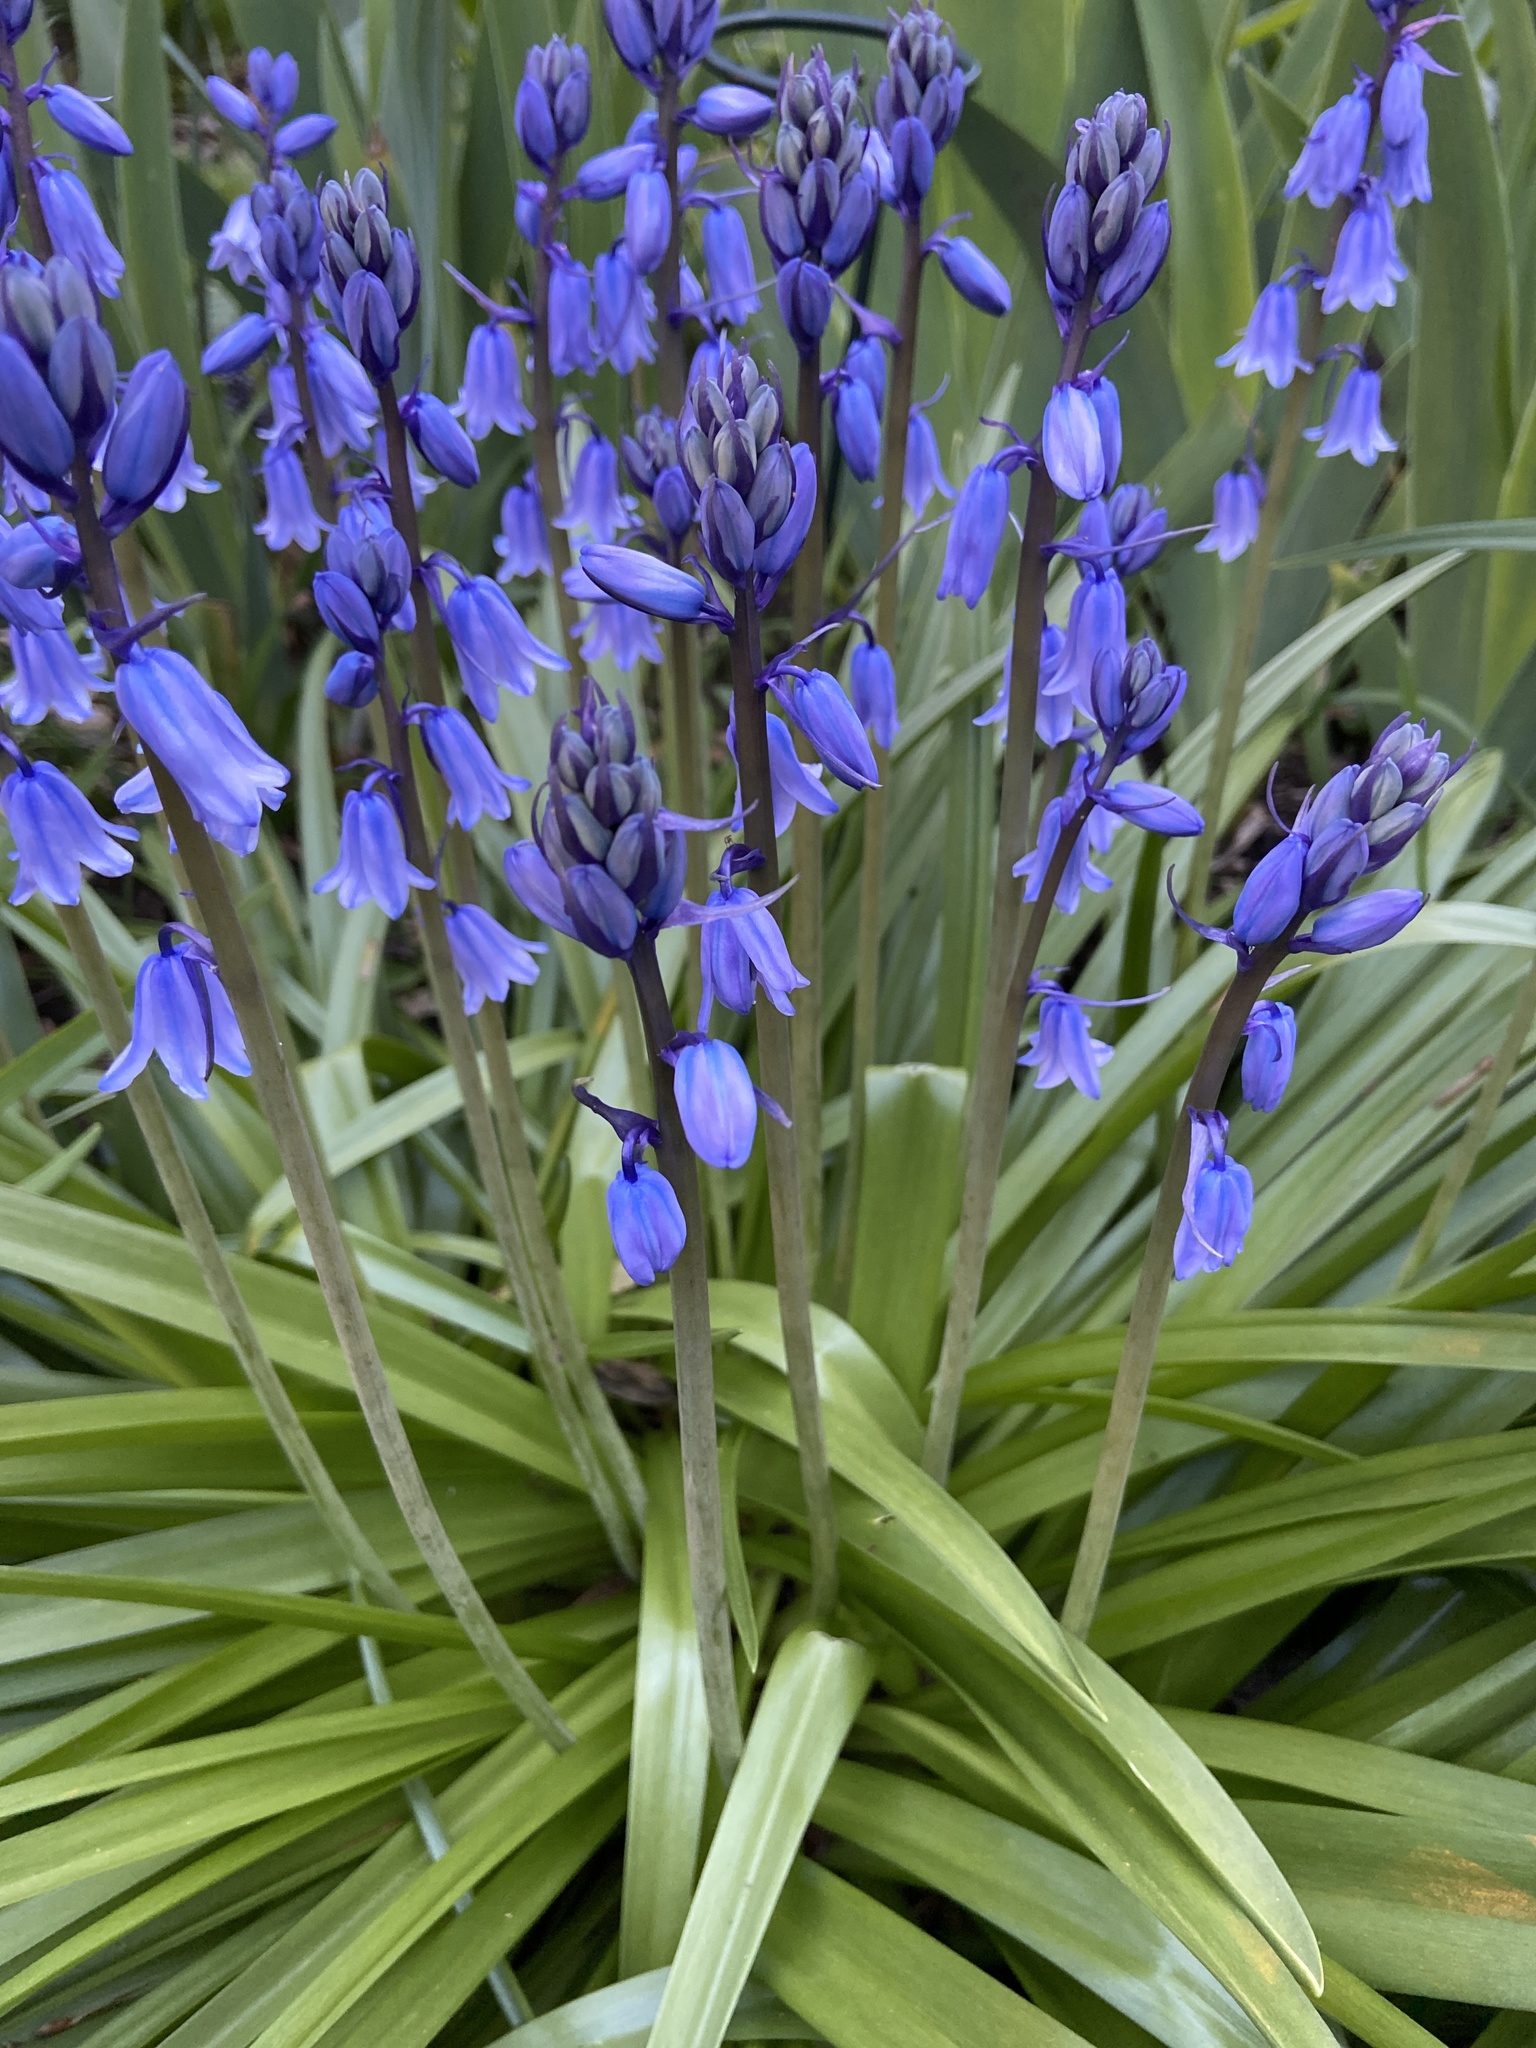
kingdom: Plantae
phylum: Tracheophyta
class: Liliopsida
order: Asparagales
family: Asparagaceae
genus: Hyacinthoides
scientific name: Hyacinthoides hispanica
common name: Spanish bluebell
